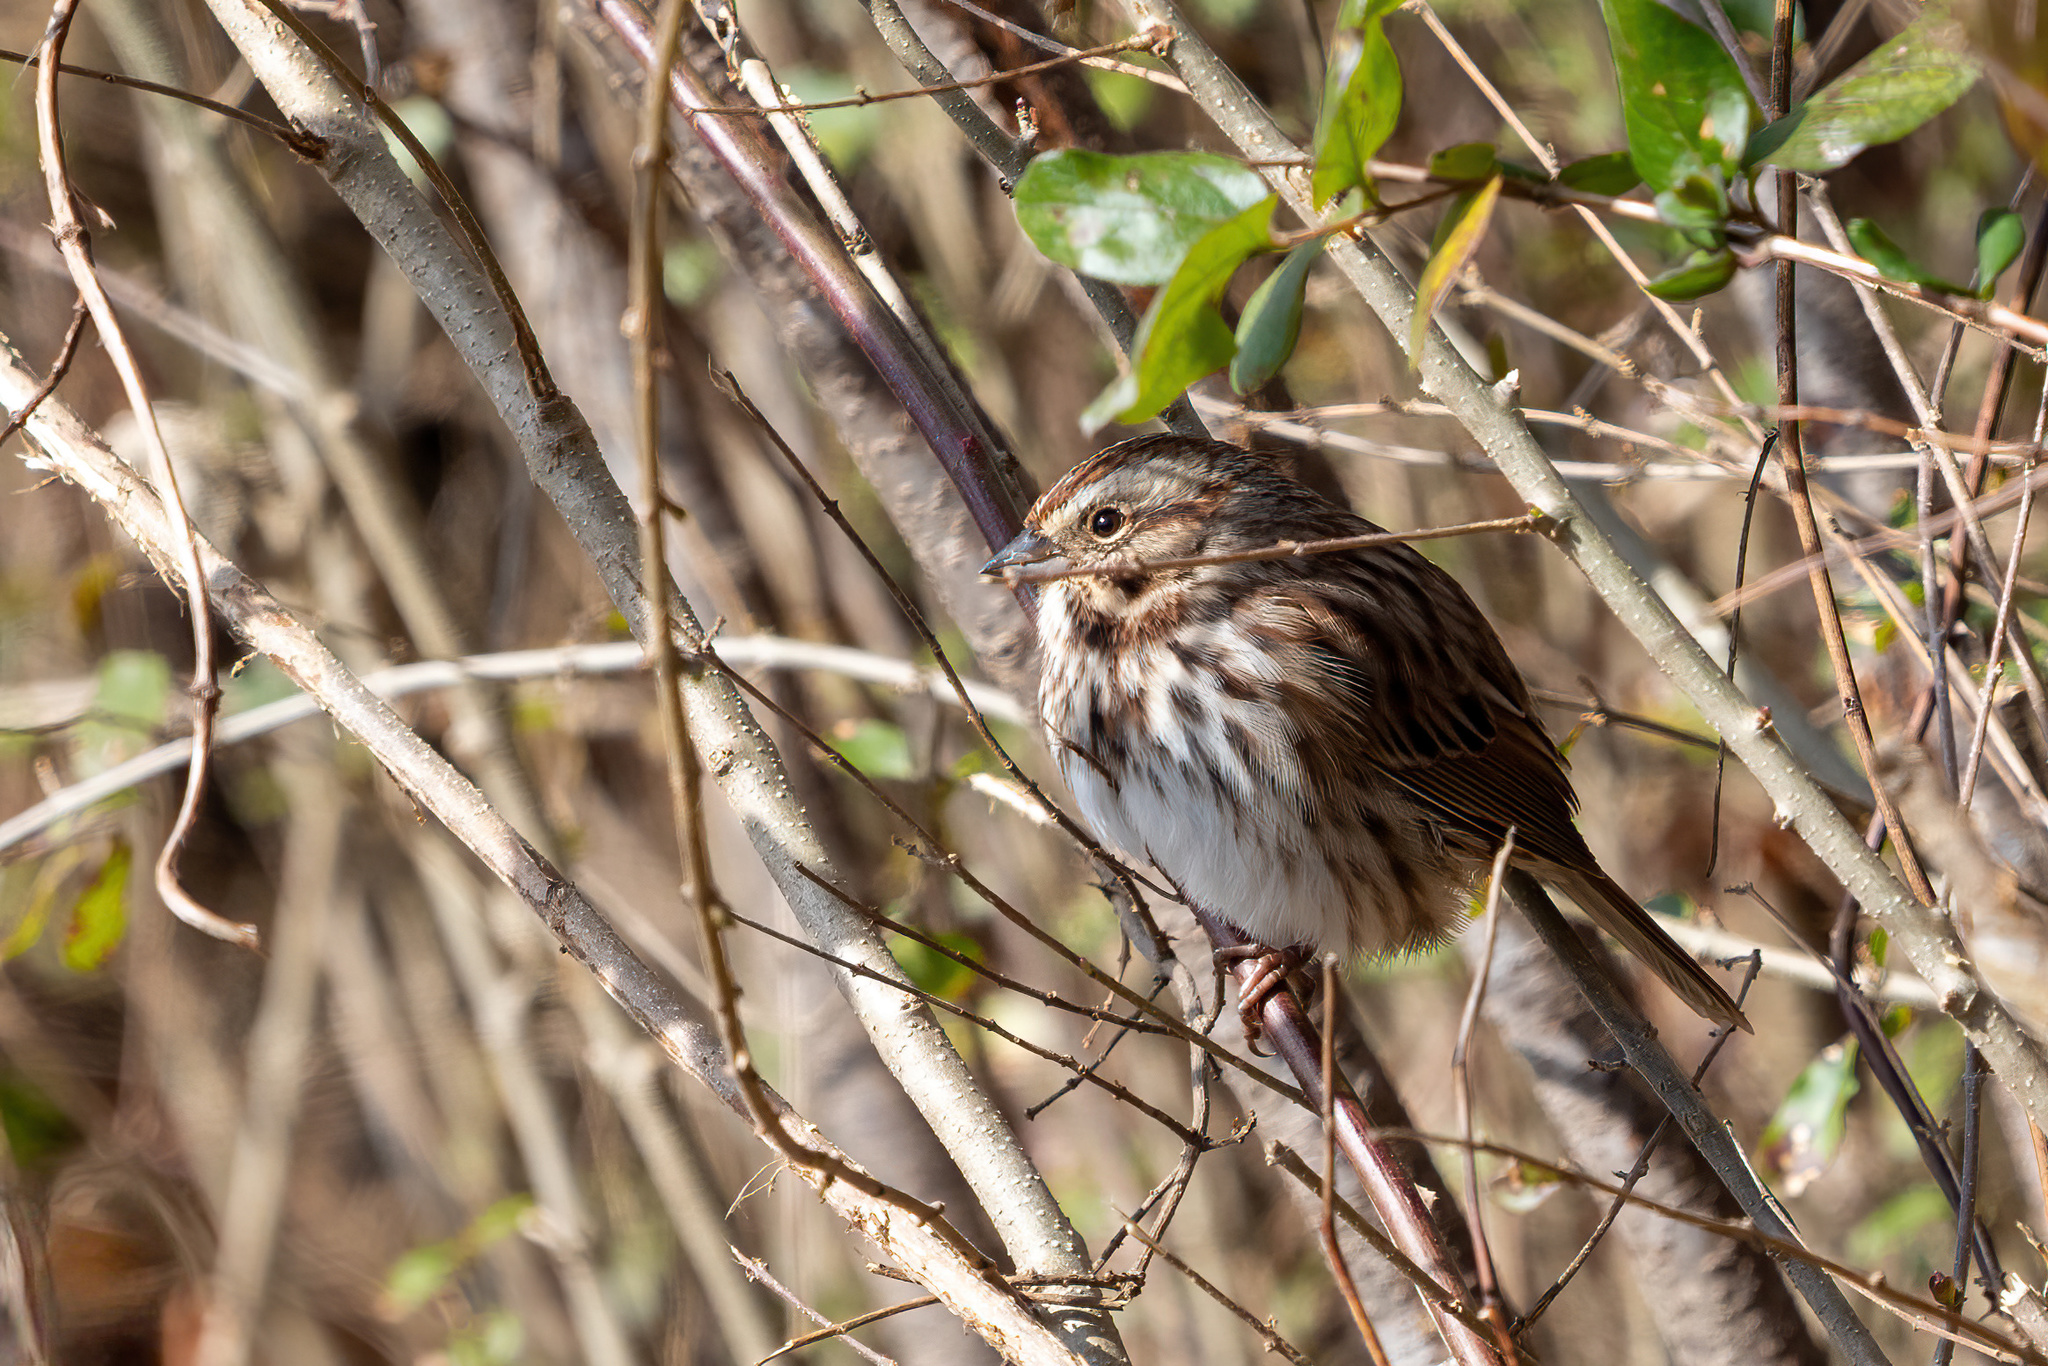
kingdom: Animalia
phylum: Chordata
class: Aves
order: Passeriformes
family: Passerellidae
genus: Melospiza
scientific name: Melospiza melodia
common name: Song sparrow
